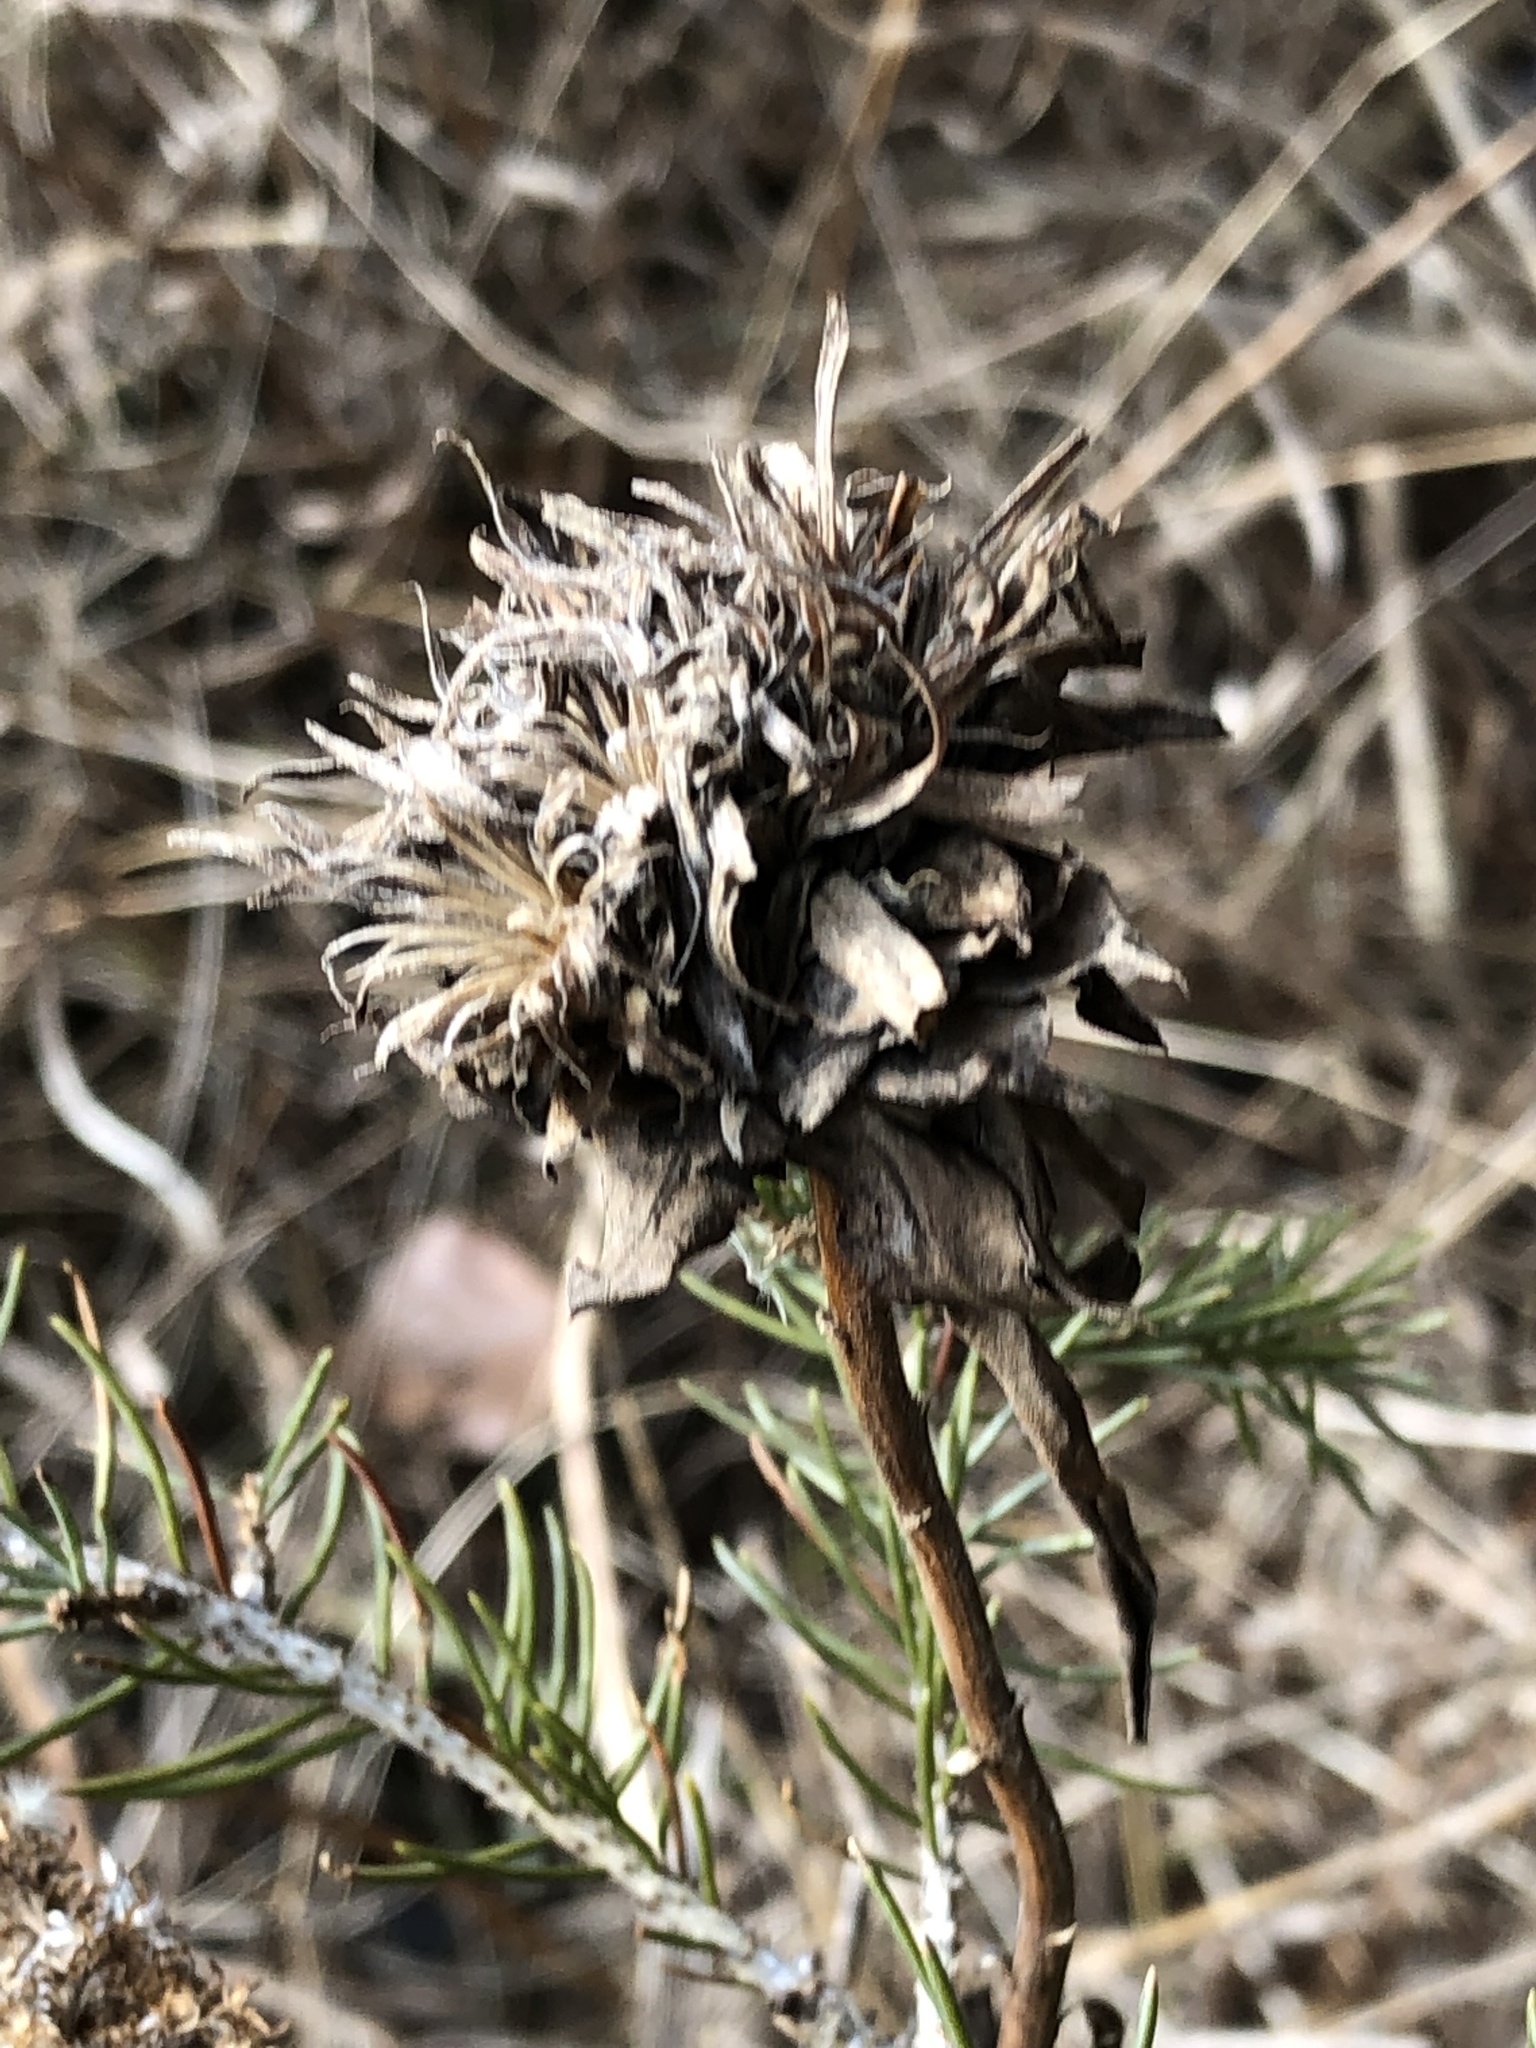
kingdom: Animalia
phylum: Arthropoda
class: Insecta
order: Diptera
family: Cecidomyiidae
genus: Rhopalomyia
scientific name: Rhopalomyia solidaginis
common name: Goldenrod bunch gall midge
